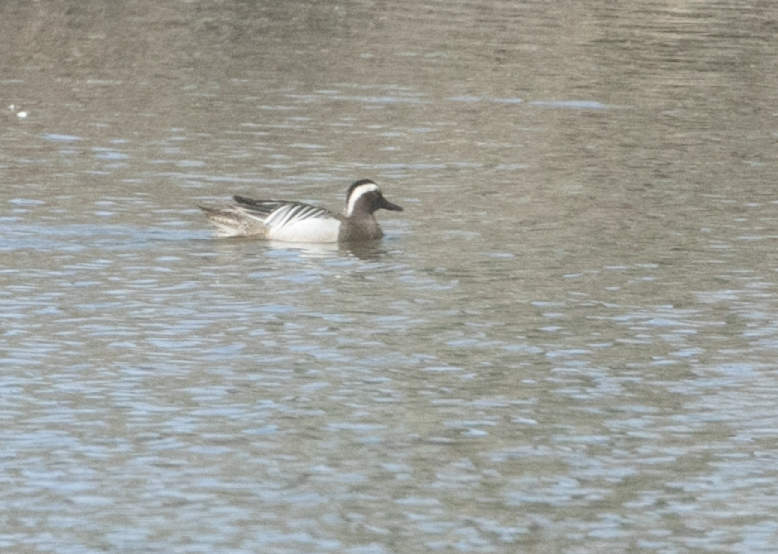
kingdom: Animalia
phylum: Chordata
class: Aves
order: Anseriformes
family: Anatidae
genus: Spatula
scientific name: Spatula querquedula
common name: Garganey
